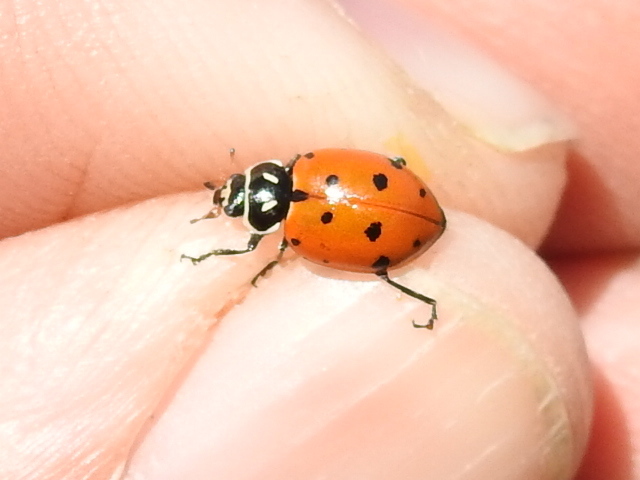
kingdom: Animalia
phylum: Arthropoda
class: Insecta
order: Coleoptera
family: Coccinellidae
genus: Hippodamia
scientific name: Hippodamia convergens
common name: Convergent lady beetle
